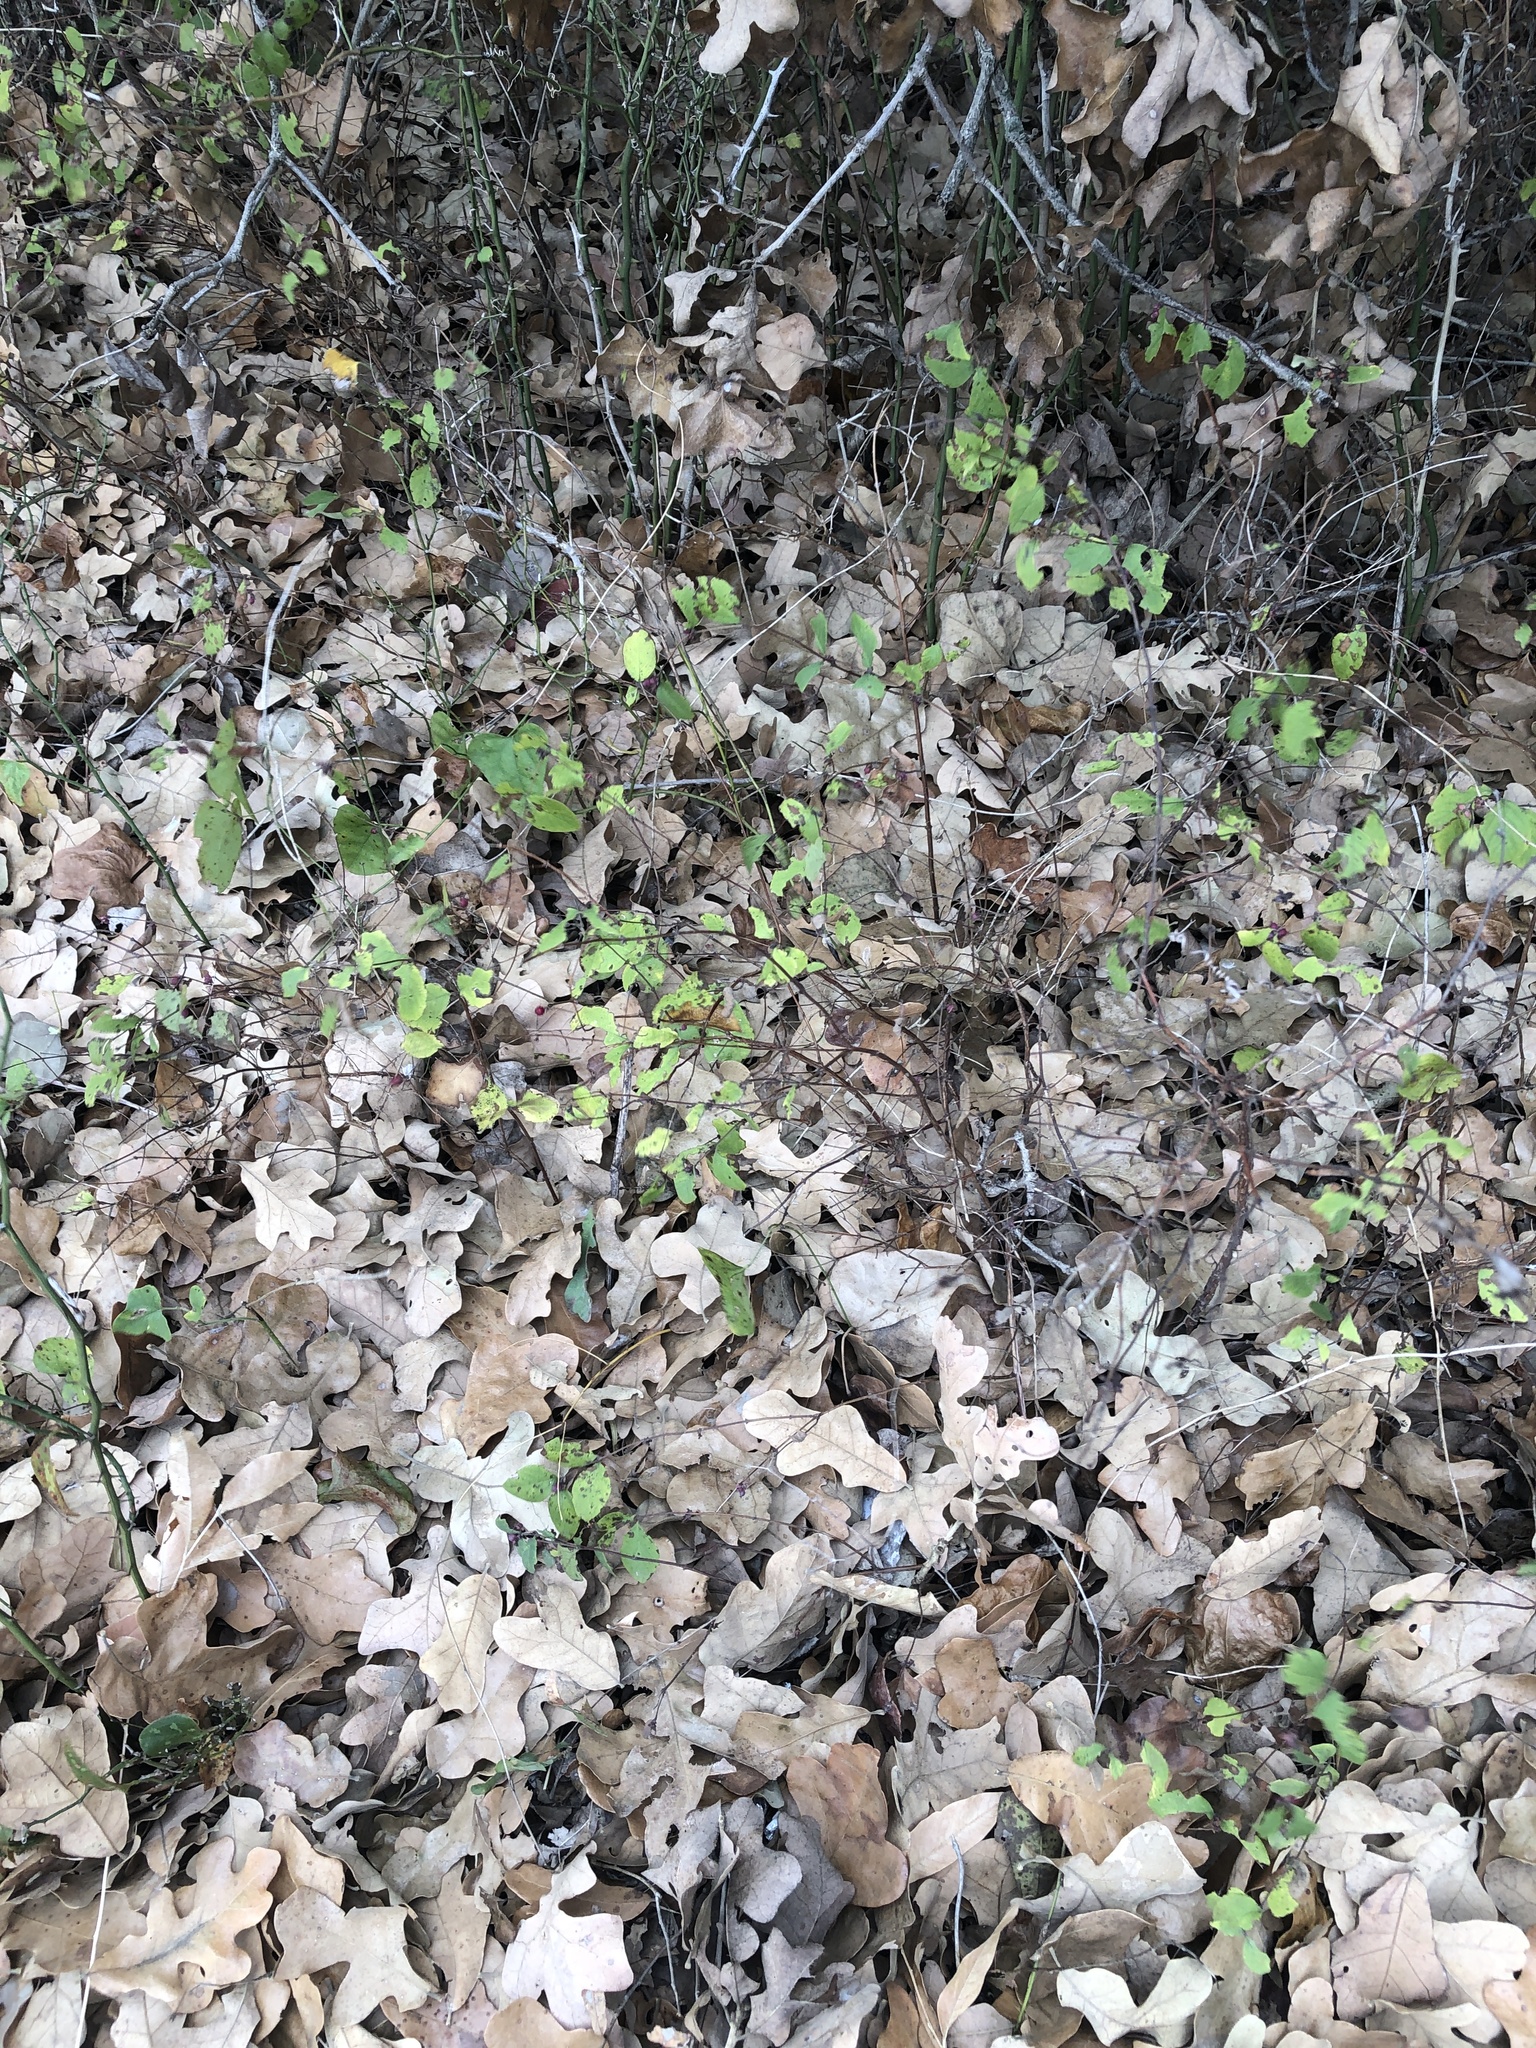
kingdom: Plantae
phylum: Tracheophyta
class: Magnoliopsida
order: Dipsacales
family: Caprifoliaceae
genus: Symphoricarpos
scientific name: Symphoricarpos orbiculatus
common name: Coralberry
